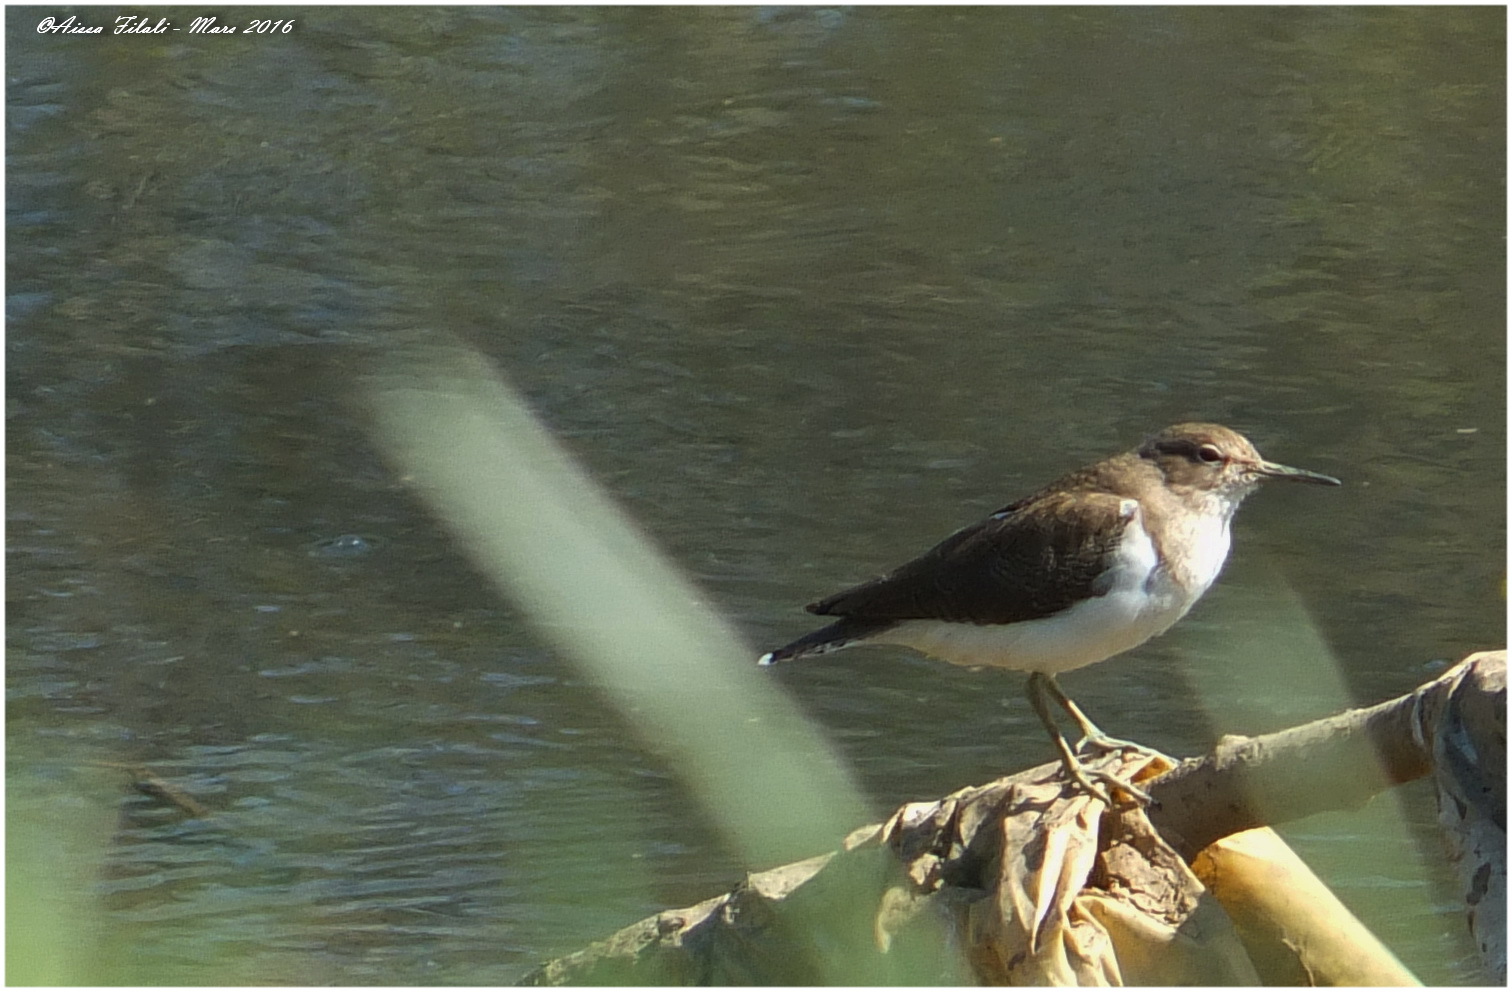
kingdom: Animalia
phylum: Chordata
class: Aves
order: Charadriiformes
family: Scolopacidae
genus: Actitis
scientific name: Actitis hypoleucos
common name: Common sandpiper
